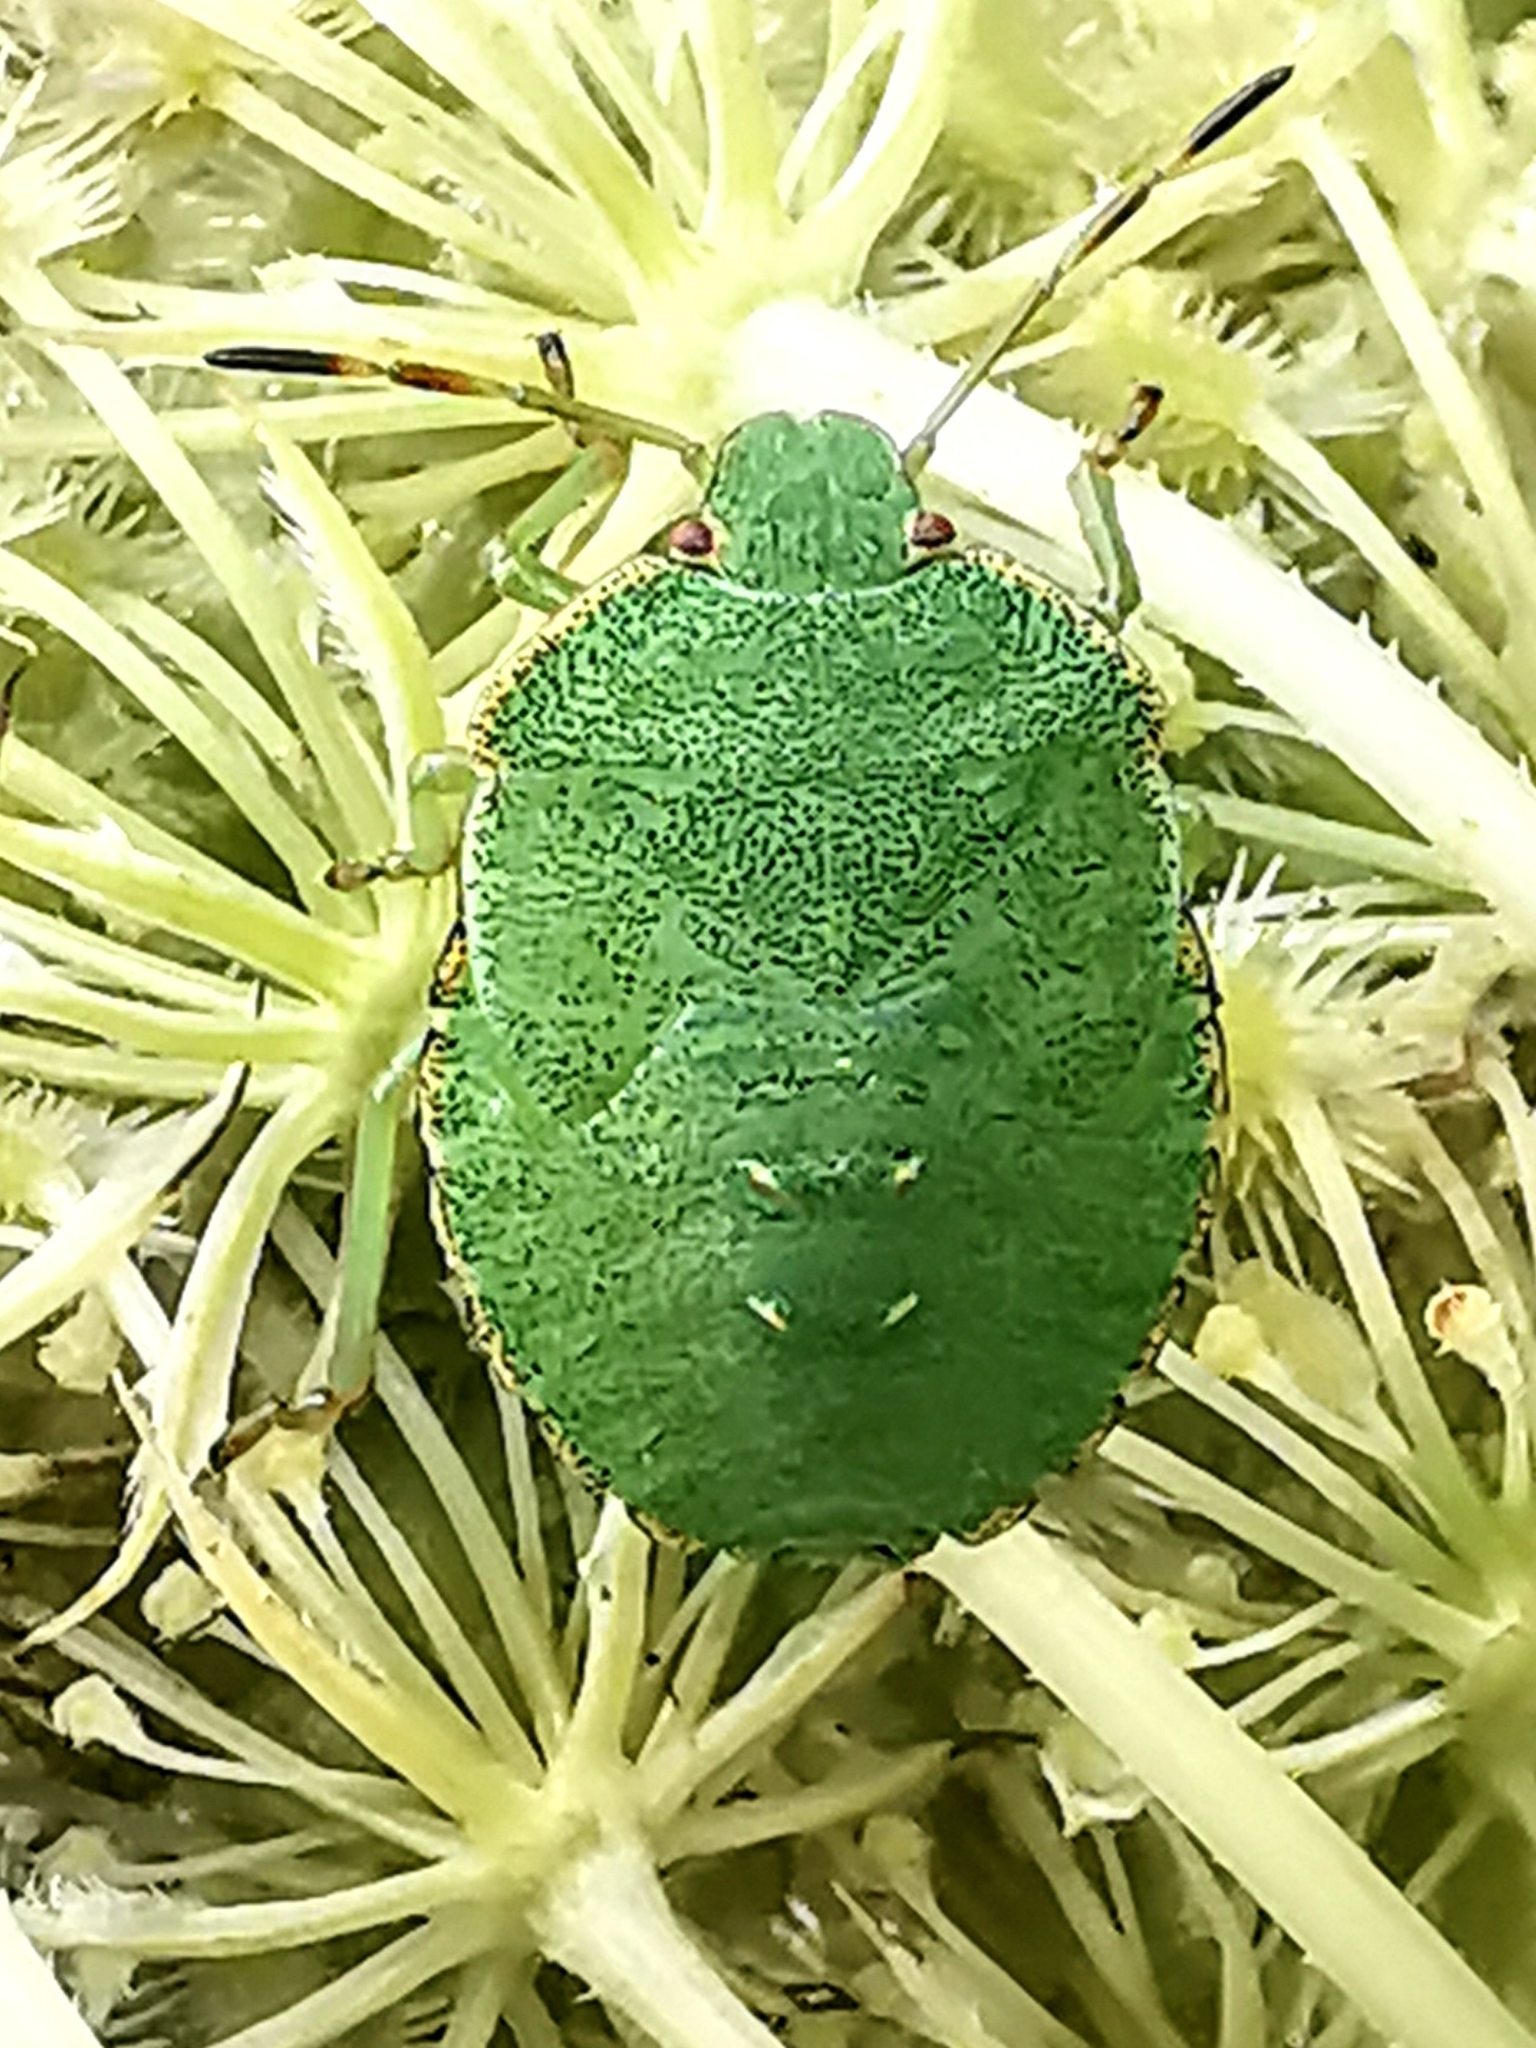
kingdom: Animalia
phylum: Arthropoda
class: Insecta
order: Hemiptera
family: Pentatomidae
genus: Palomena
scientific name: Palomena prasina
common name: Green shieldbug
